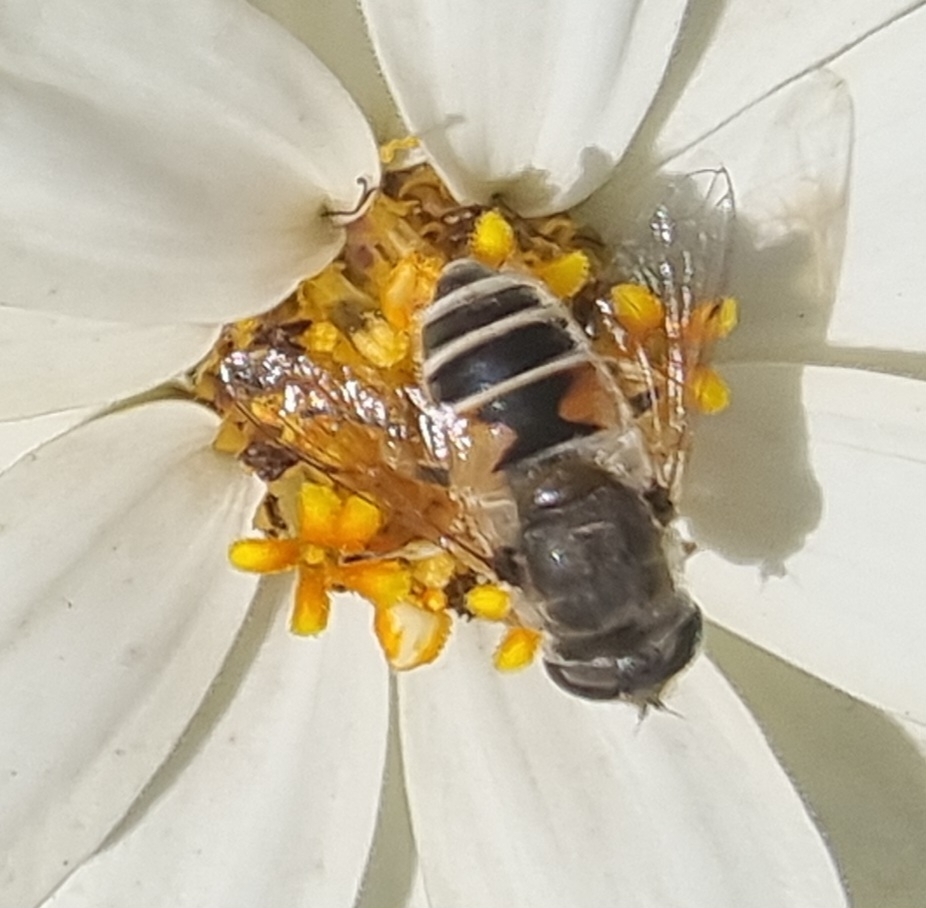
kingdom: Animalia
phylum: Arthropoda
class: Insecta
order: Diptera
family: Syrphidae
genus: Eristalis
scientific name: Eristalis arbustorum
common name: Hover fly
